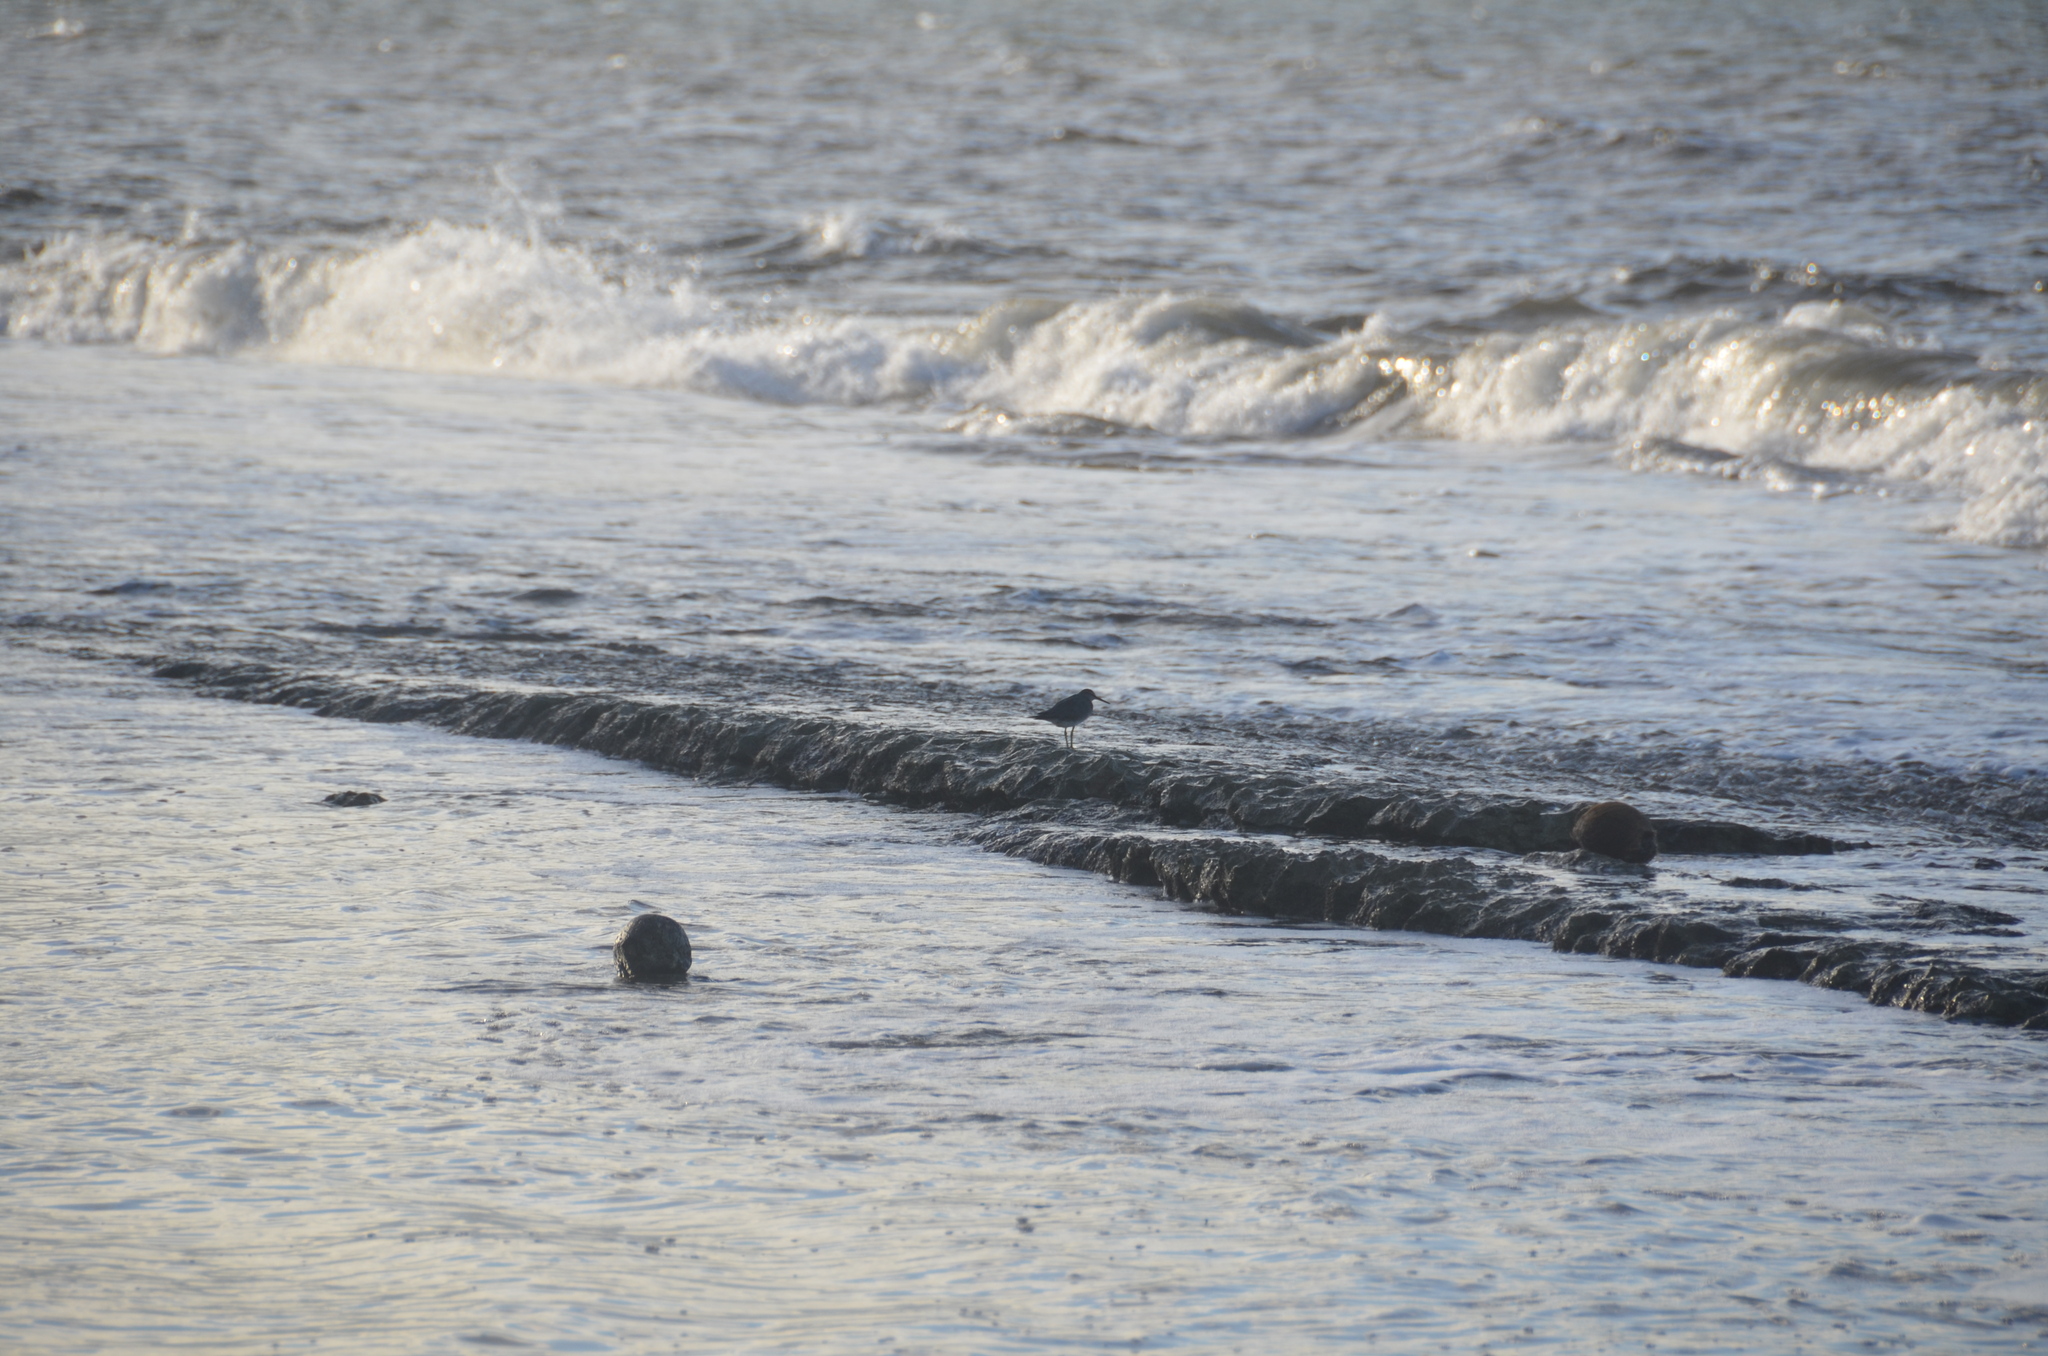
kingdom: Animalia
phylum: Chordata
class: Aves
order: Charadriiformes
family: Scolopacidae
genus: Tringa
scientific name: Tringa incana
